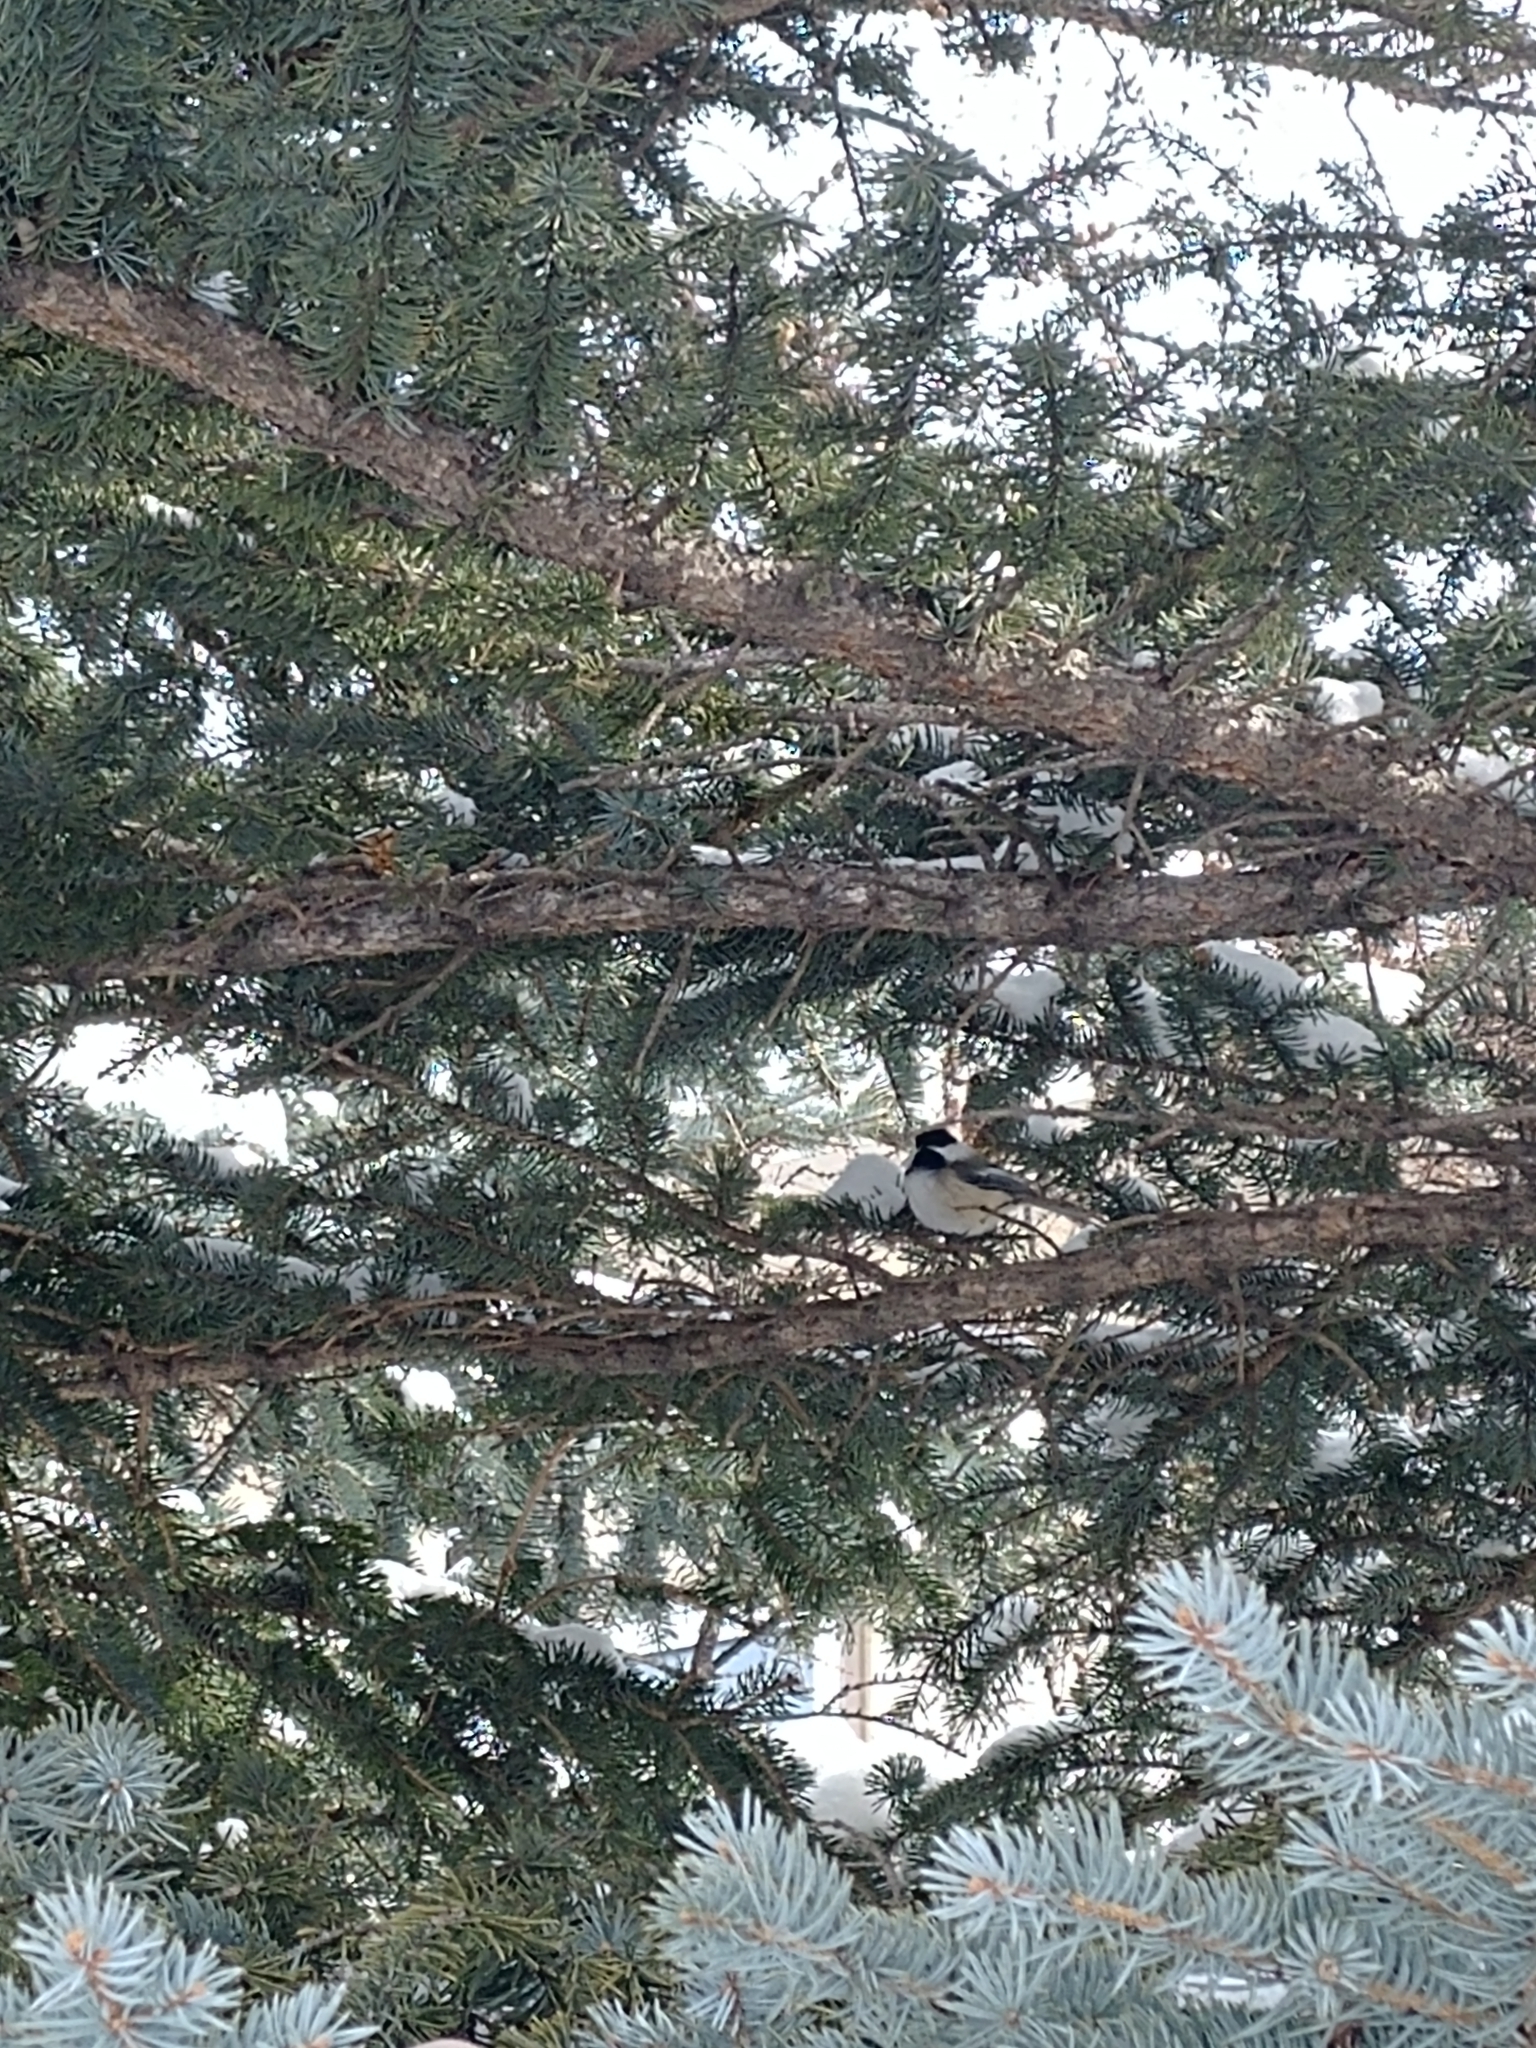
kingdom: Animalia
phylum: Chordata
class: Aves
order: Passeriformes
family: Paridae
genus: Poecile
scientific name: Poecile atricapillus
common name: Black-capped chickadee
